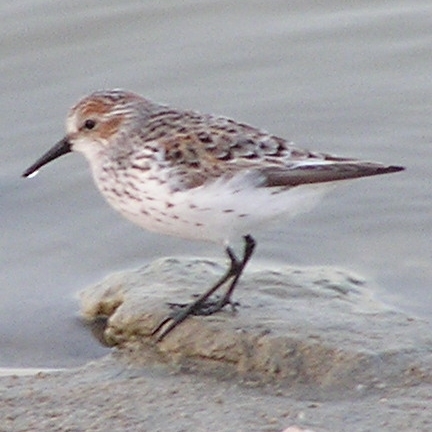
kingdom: Animalia
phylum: Chordata
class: Aves
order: Charadriiformes
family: Scolopacidae
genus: Calidris
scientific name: Calidris mauri
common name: Western sandpiper
